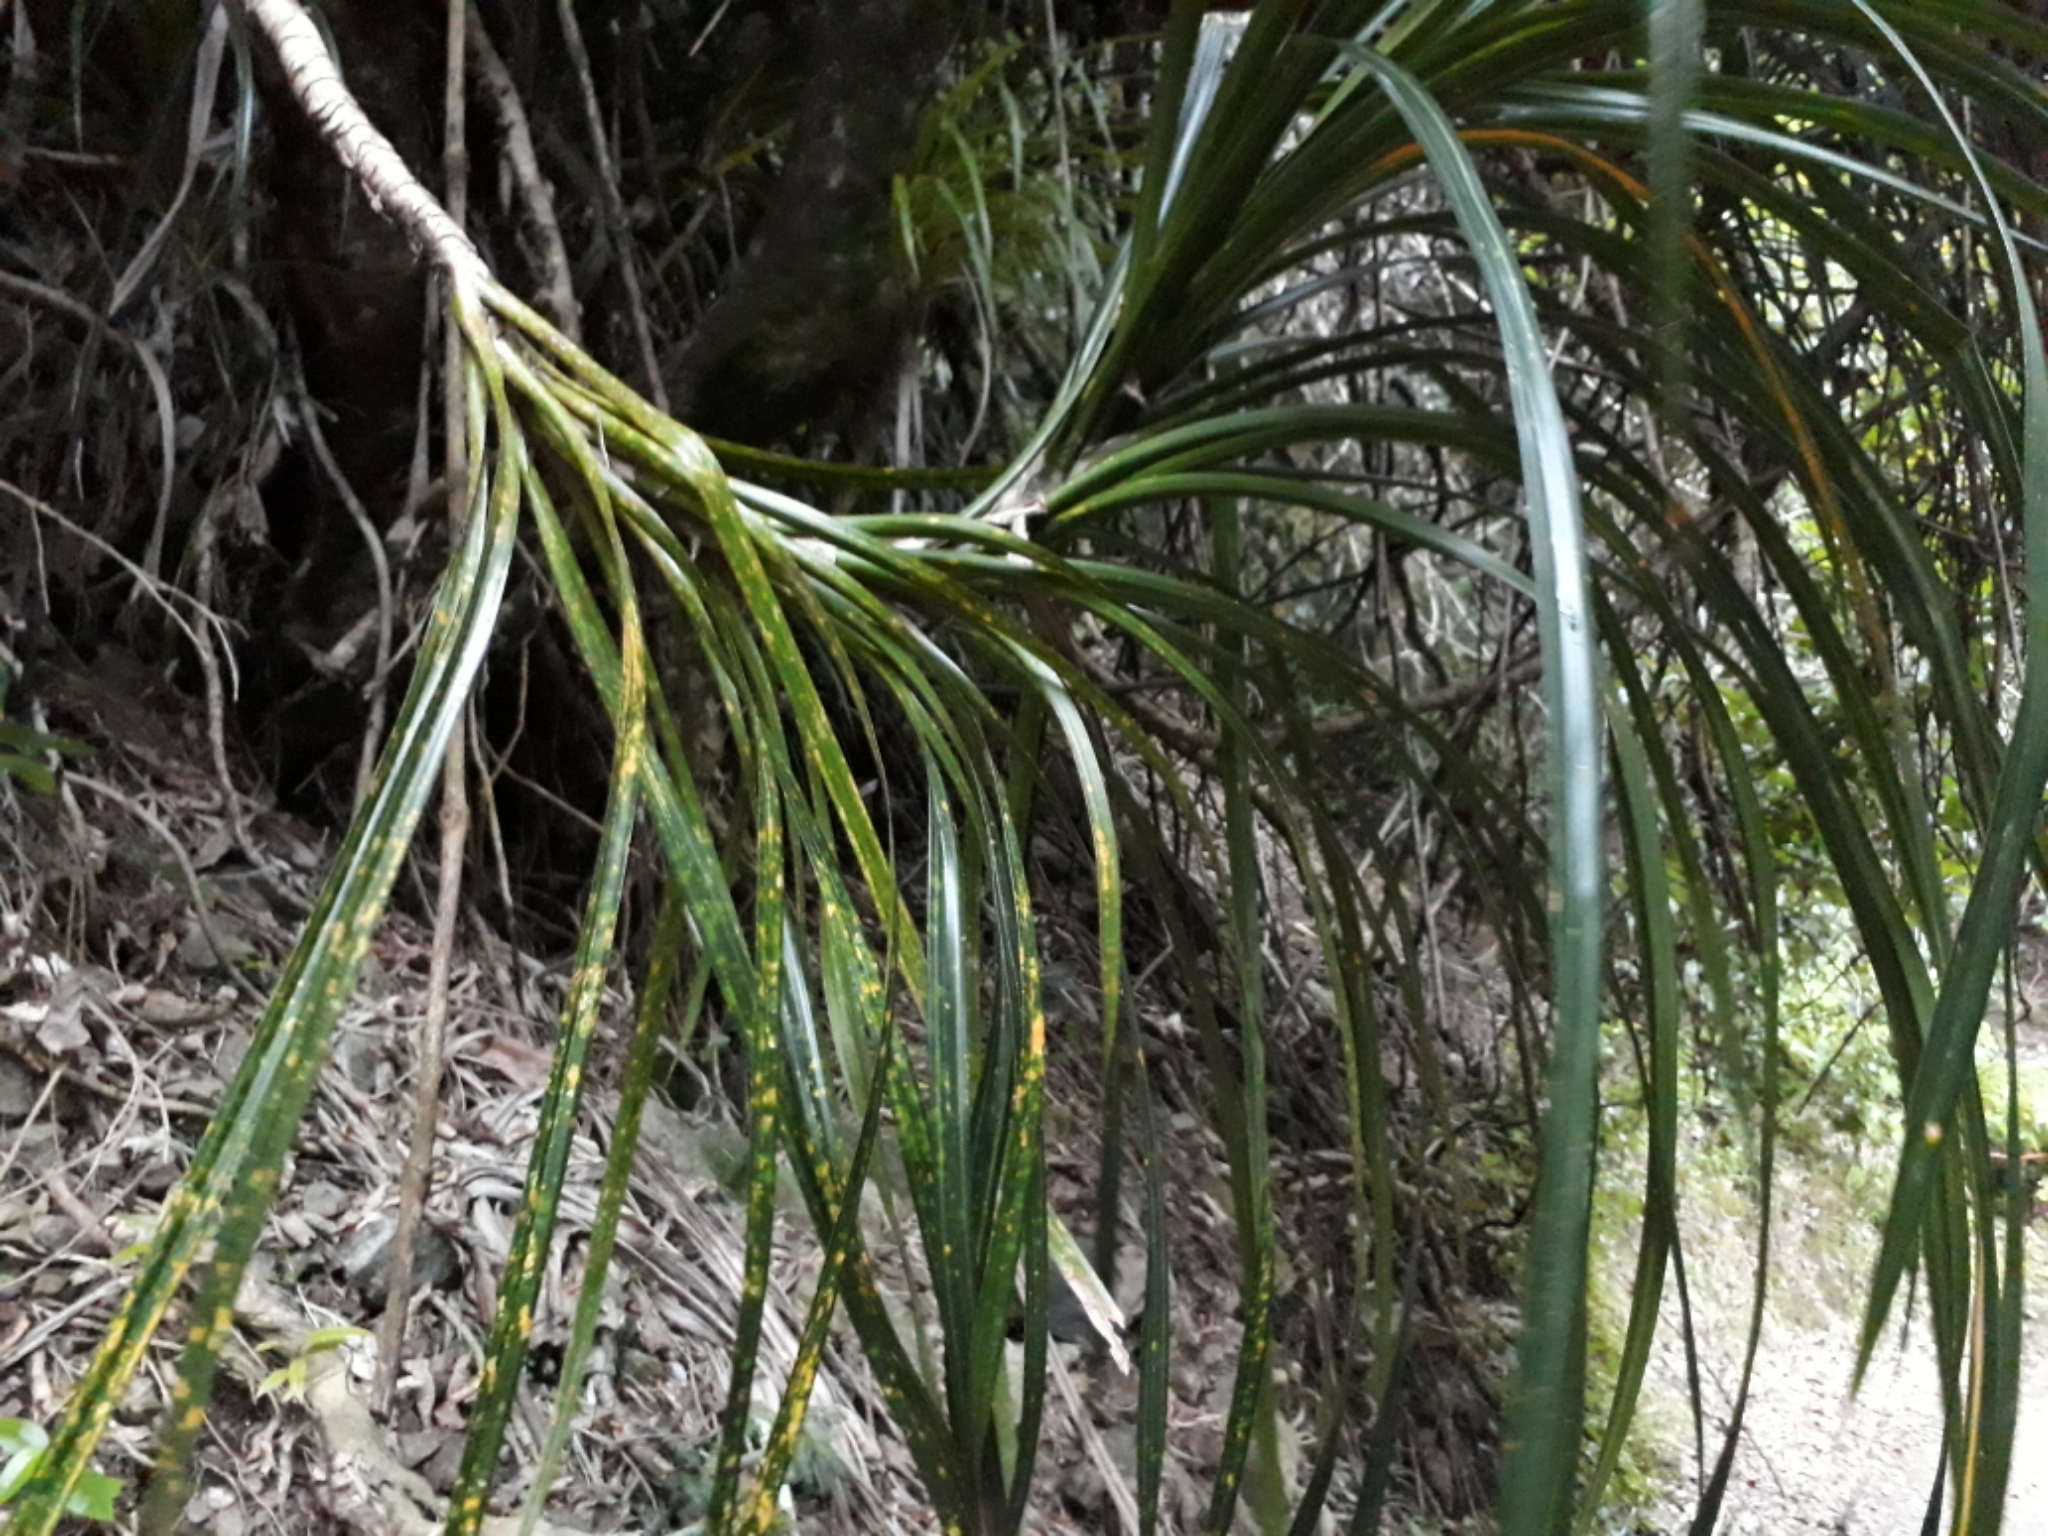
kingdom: Plantae
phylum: Tracheophyta
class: Liliopsida
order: Pandanales
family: Pandanaceae
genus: Freycinetia
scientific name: Freycinetia banksii
